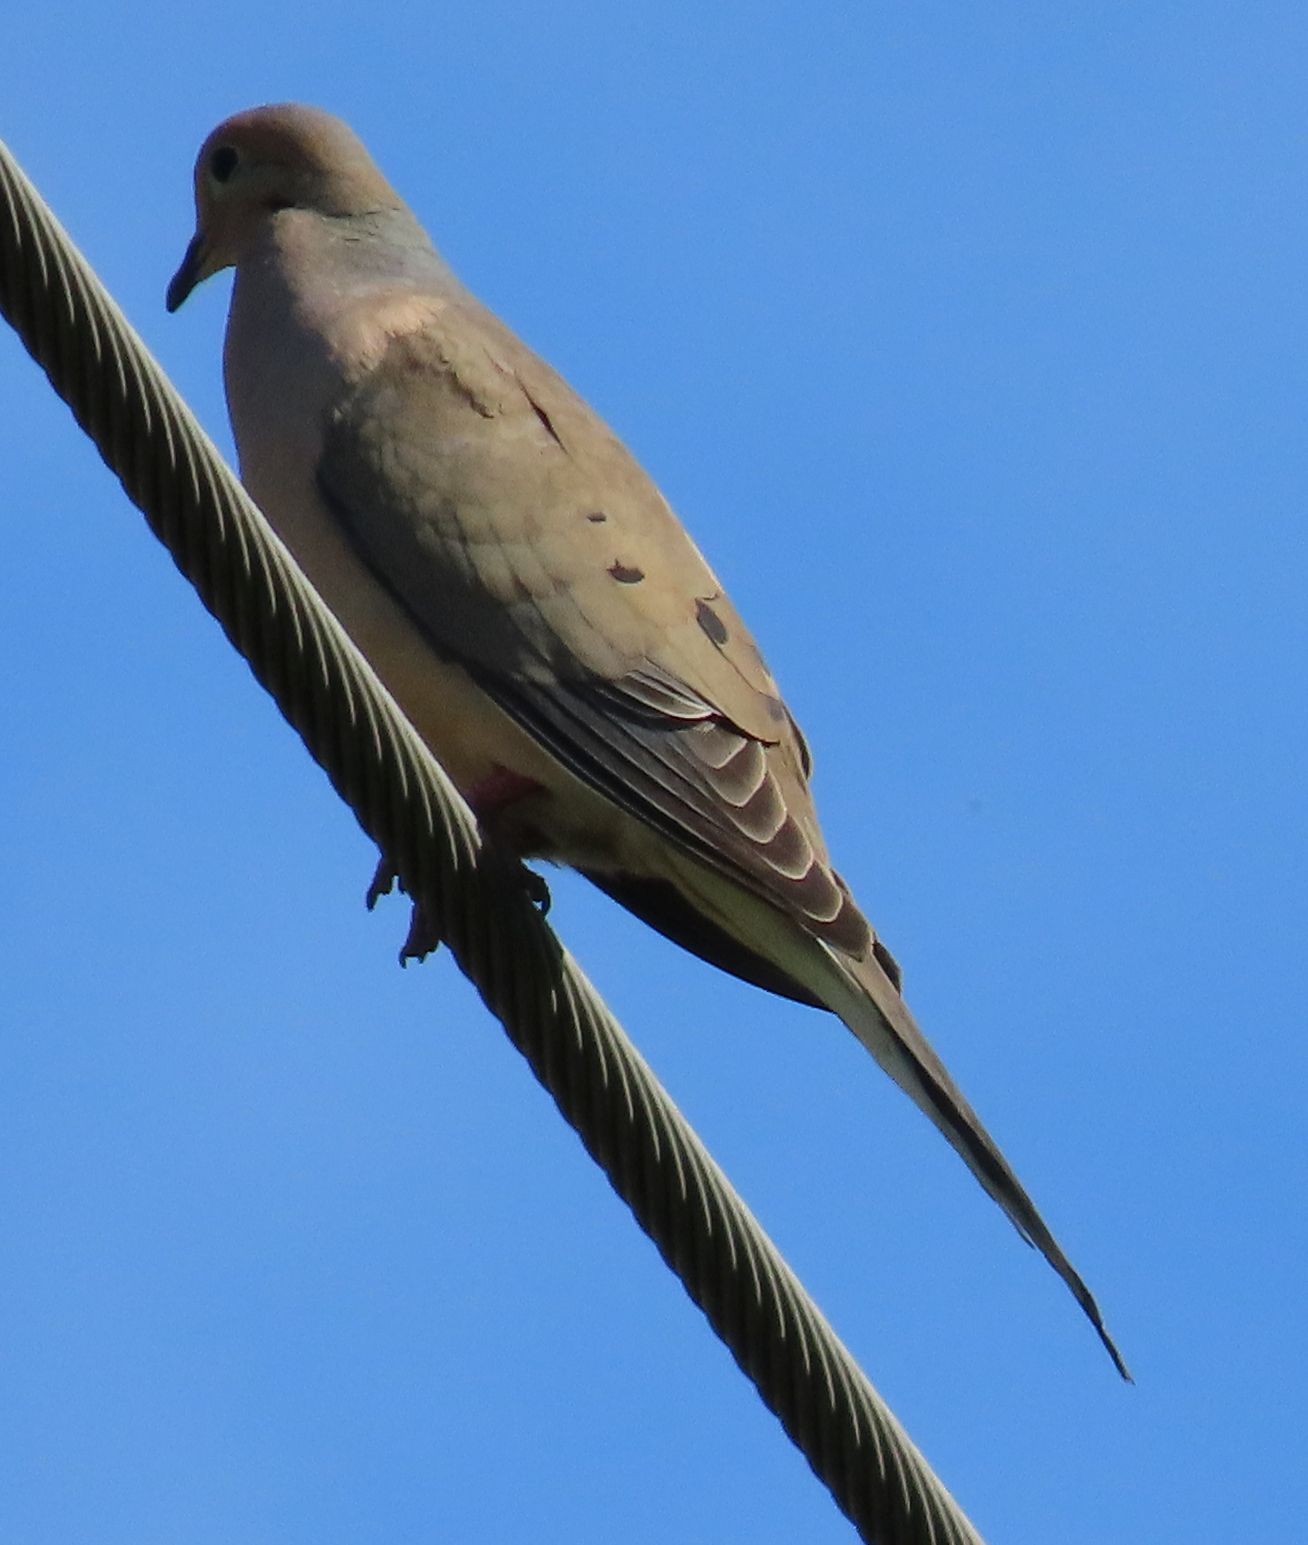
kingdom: Animalia
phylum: Chordata
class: Aves
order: Columbiformes
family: Columbidae
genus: Zenaida
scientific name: Zenaida macroura
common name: Mourning dove
